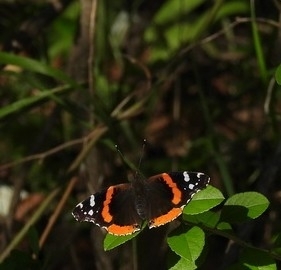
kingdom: Animalia
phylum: Arthropoda
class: Insecta
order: Lepidoptera
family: Nymphalidae
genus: Vanessa
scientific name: Vanessa atalanta
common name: Red admiral
